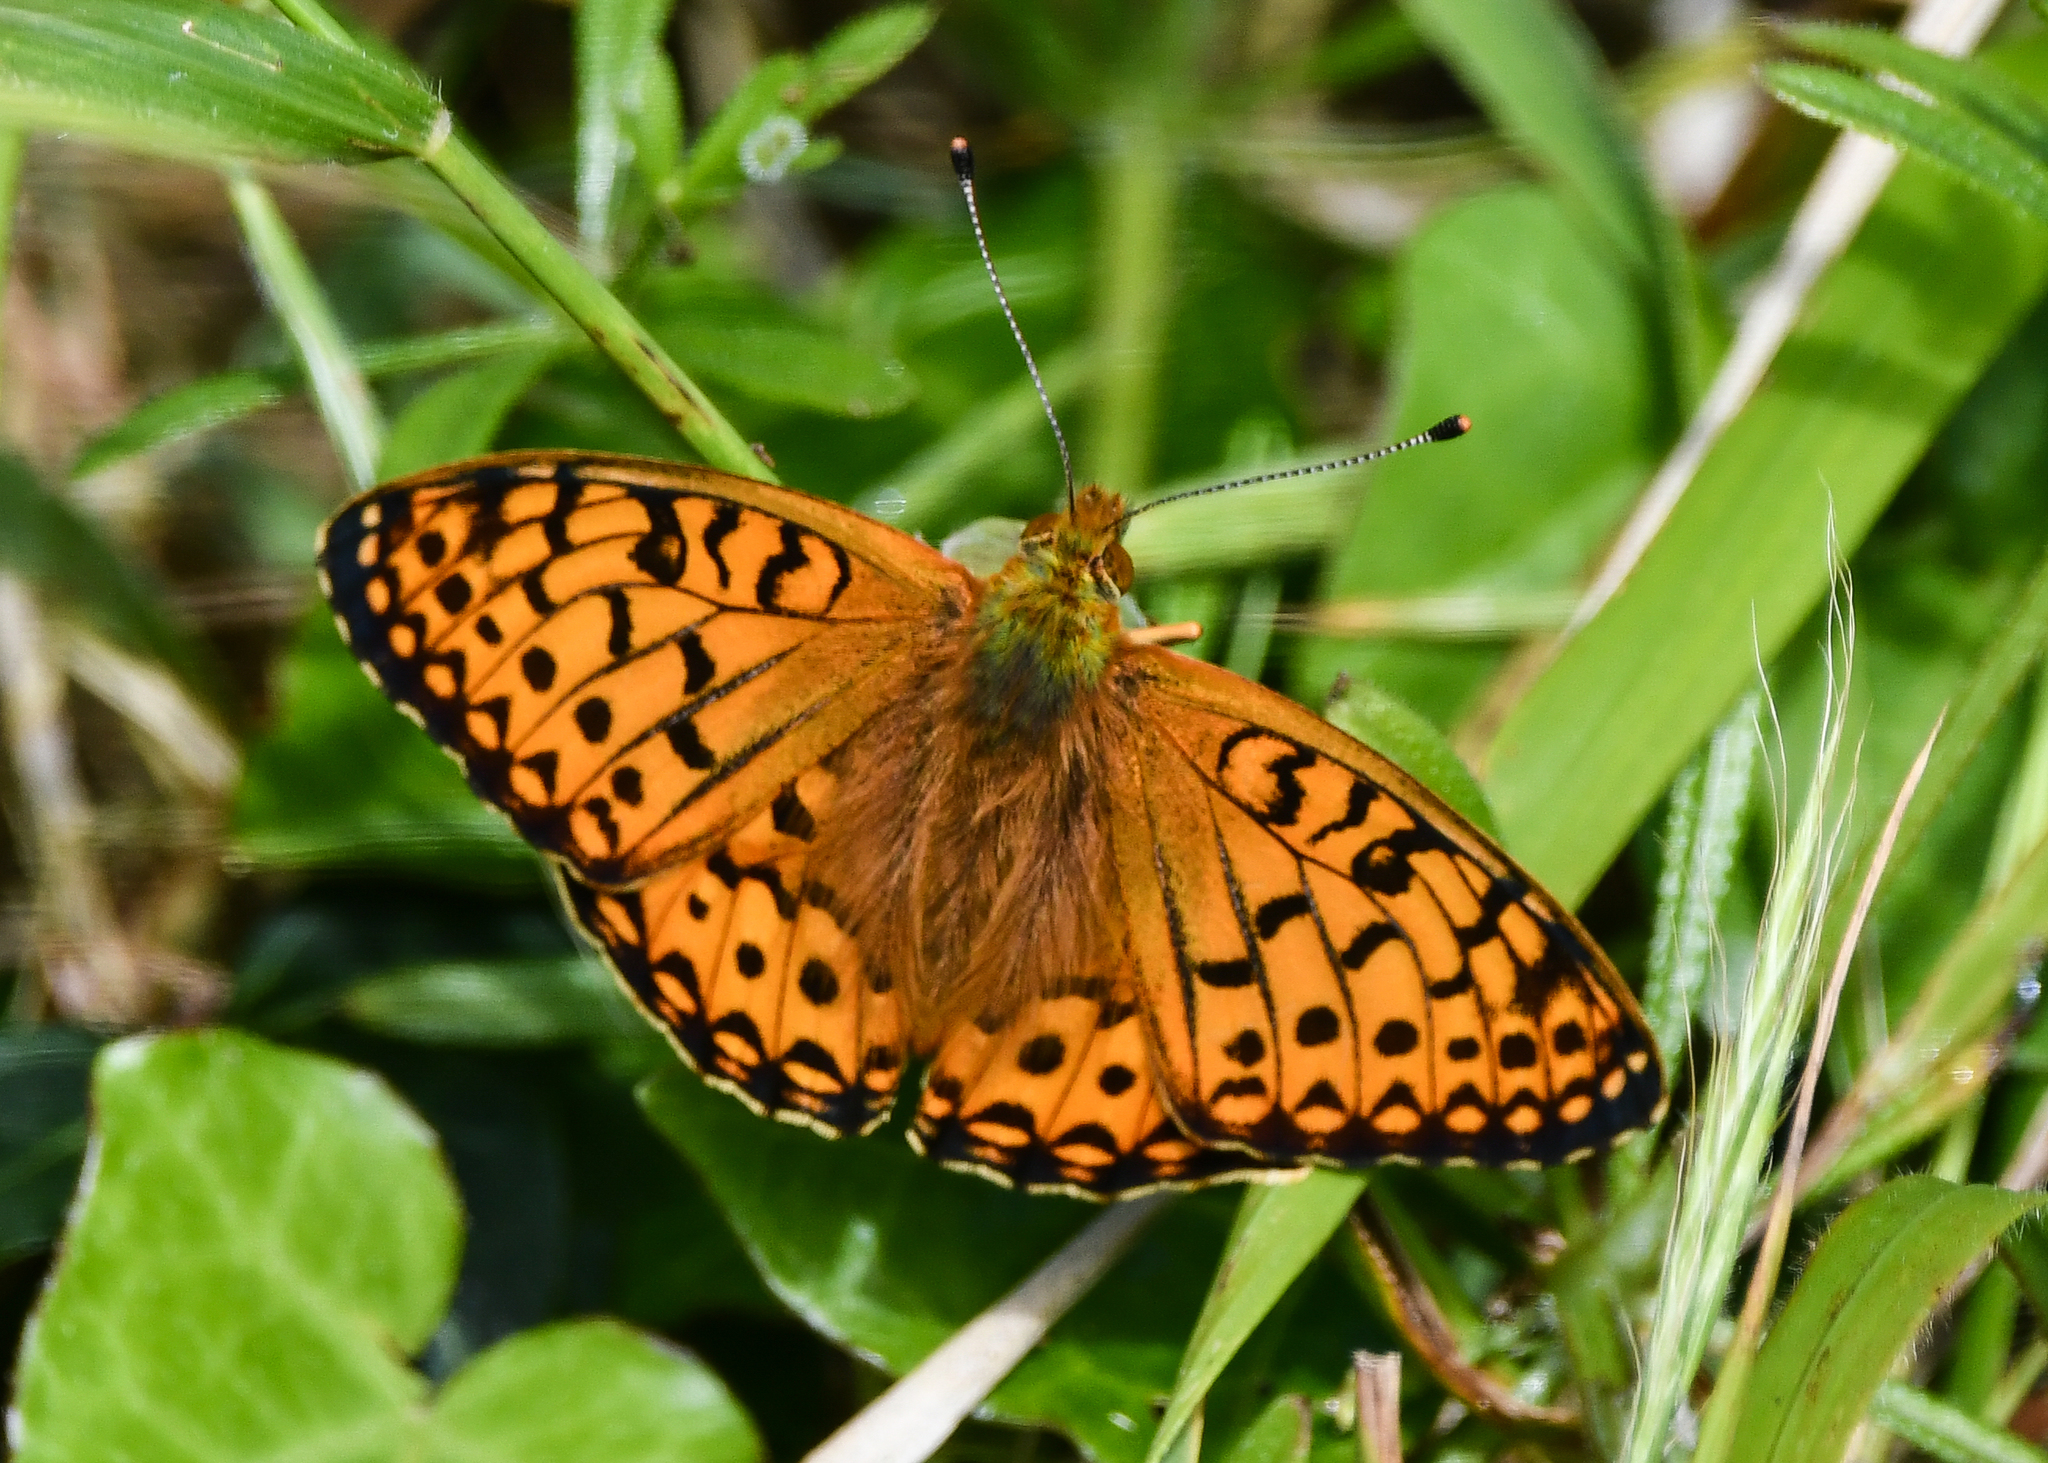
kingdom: Animalia
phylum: Arthropoda
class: Insecta
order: Lepidoptera
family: Nymphalidae
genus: Speyeria
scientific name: Speyeria aglaja
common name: Dark green fritillary
